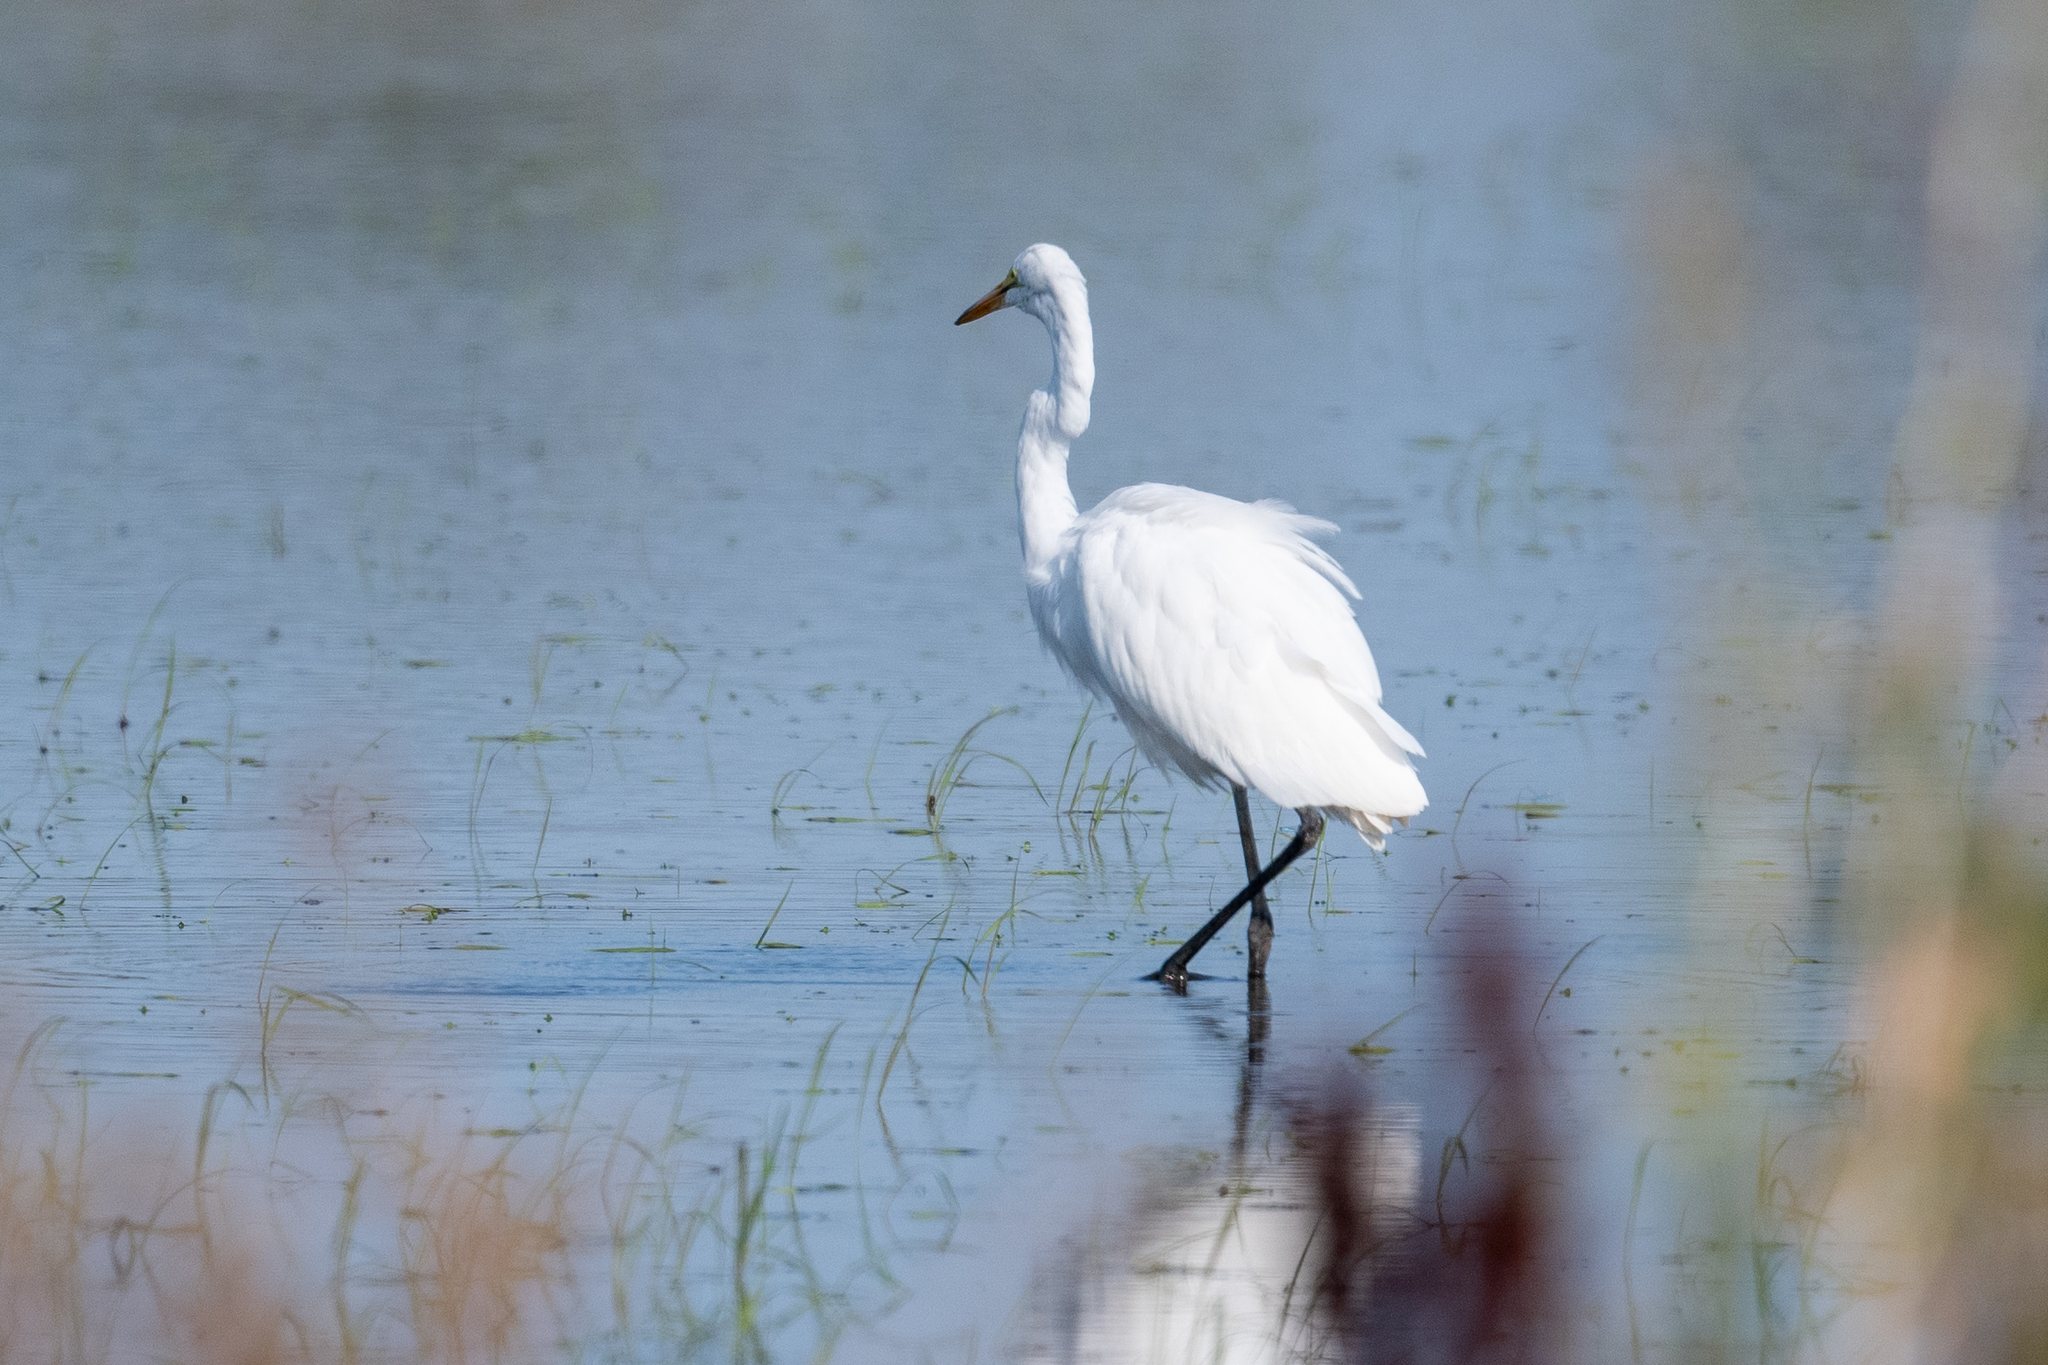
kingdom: Animalia
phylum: Chordata
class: Aves
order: Pelecaniformes
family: Ardeidae
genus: Ardea
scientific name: Ardea alba
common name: Great egret
